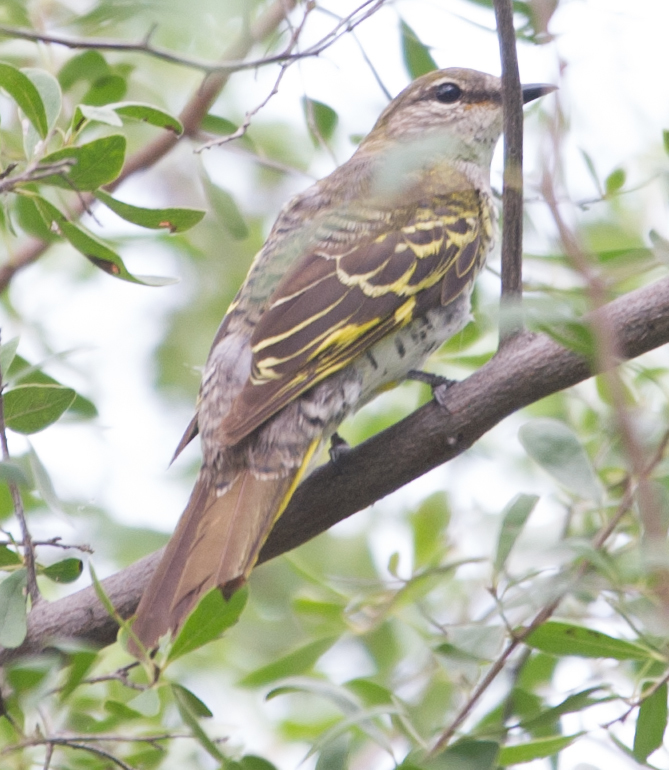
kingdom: Animalia
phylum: Chordata
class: Aves
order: Passeriformes
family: Campephagidae
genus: Campephaga
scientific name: Campephaga flava
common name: Black cuckooshrike
